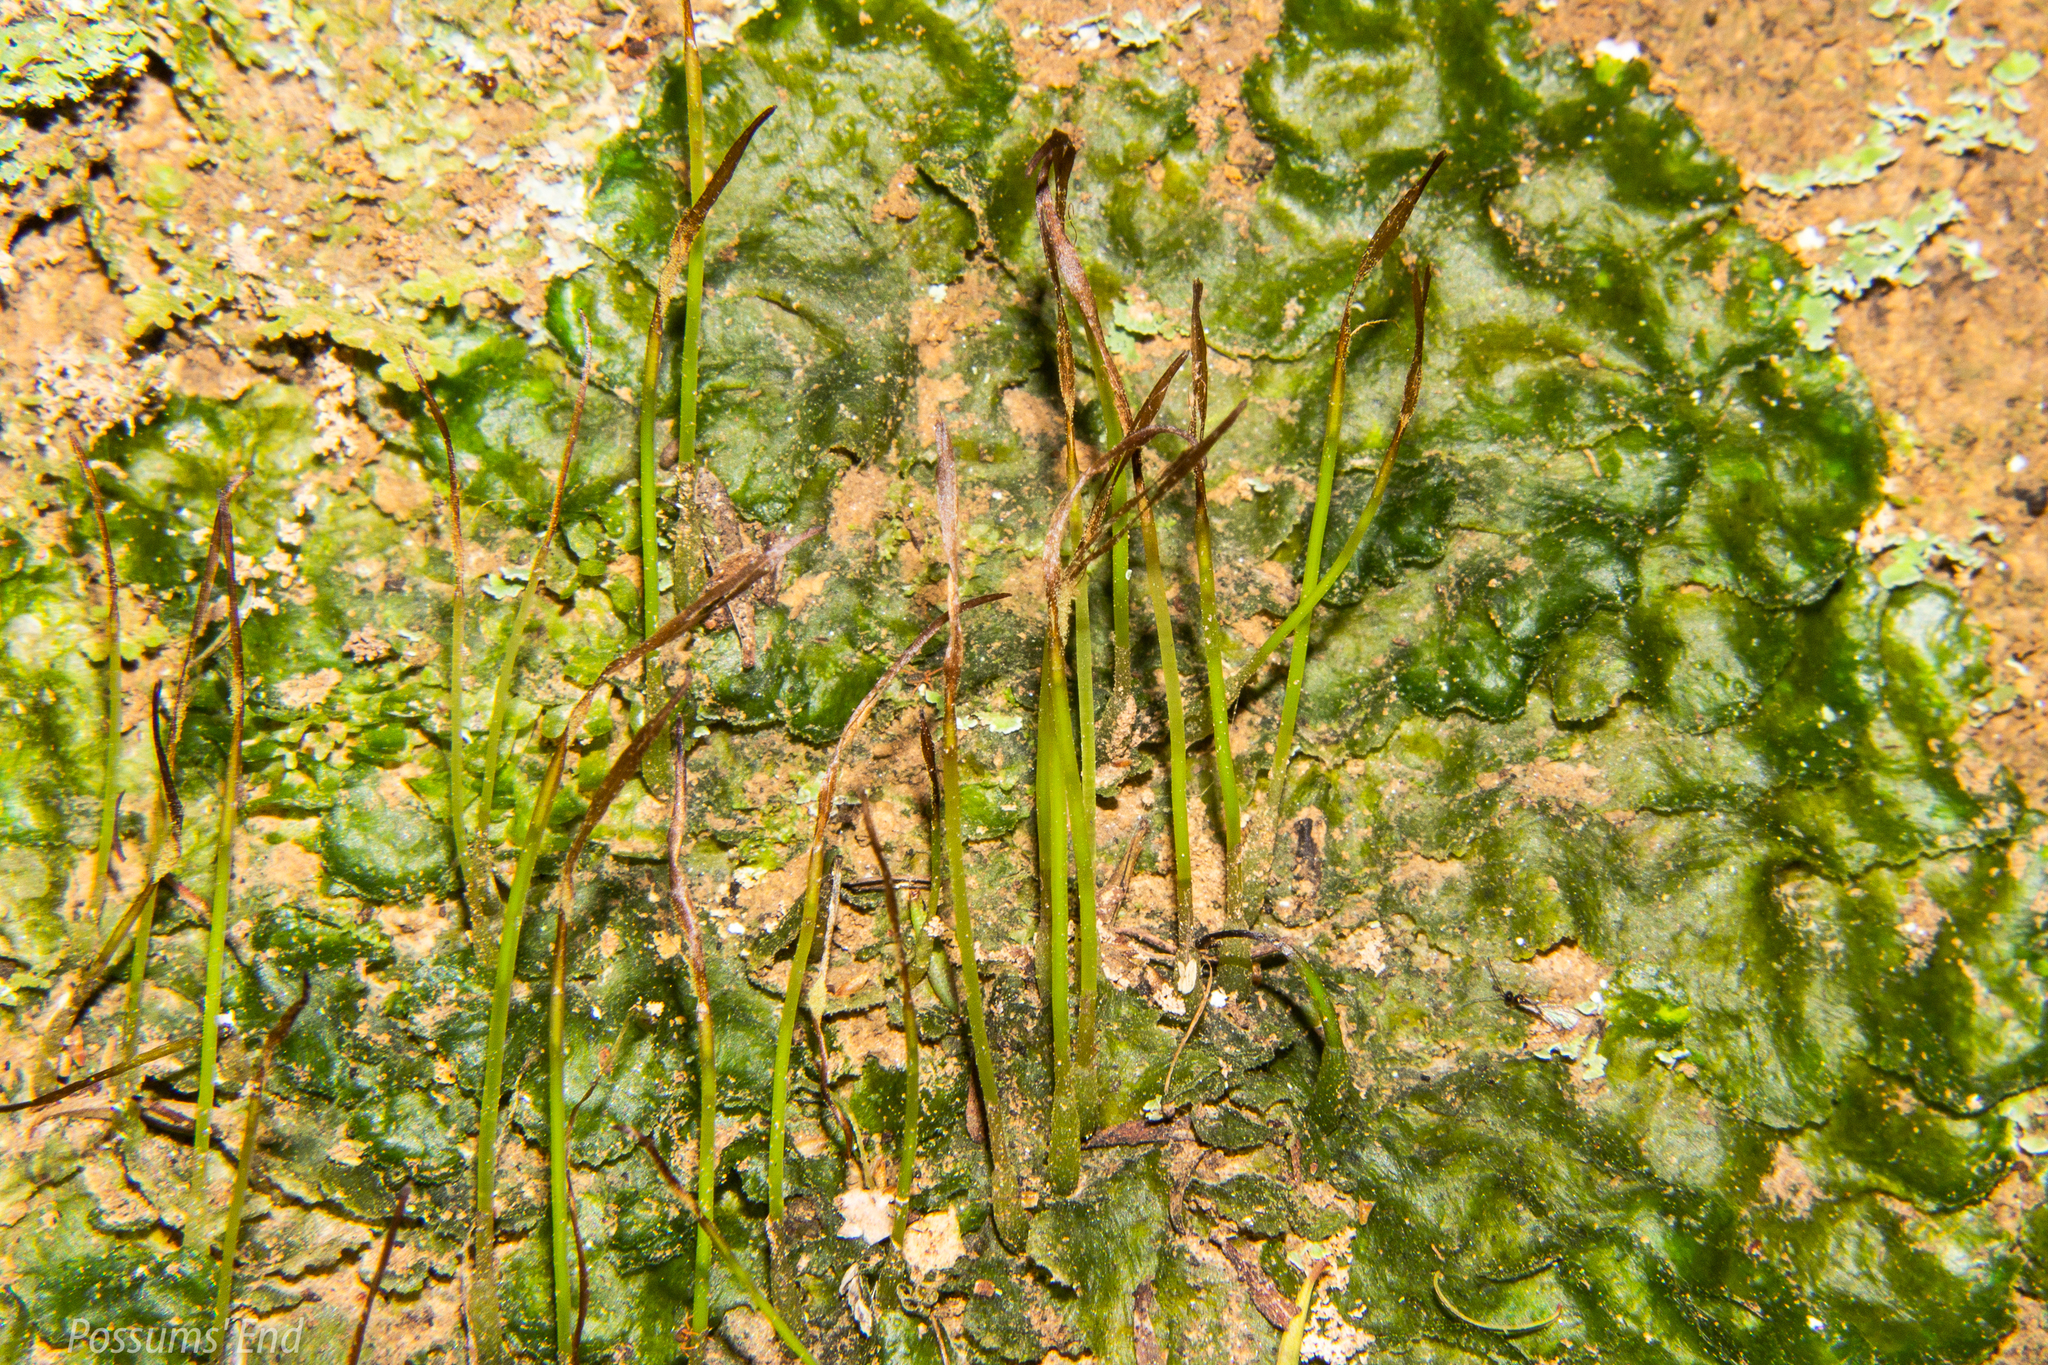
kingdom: Plantae
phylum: Anthocerotophyta
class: Anthocerotopsida
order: Dendrocerotales
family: Dendrocerotaceae
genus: Megaceros
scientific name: Megaceros flagellaris
